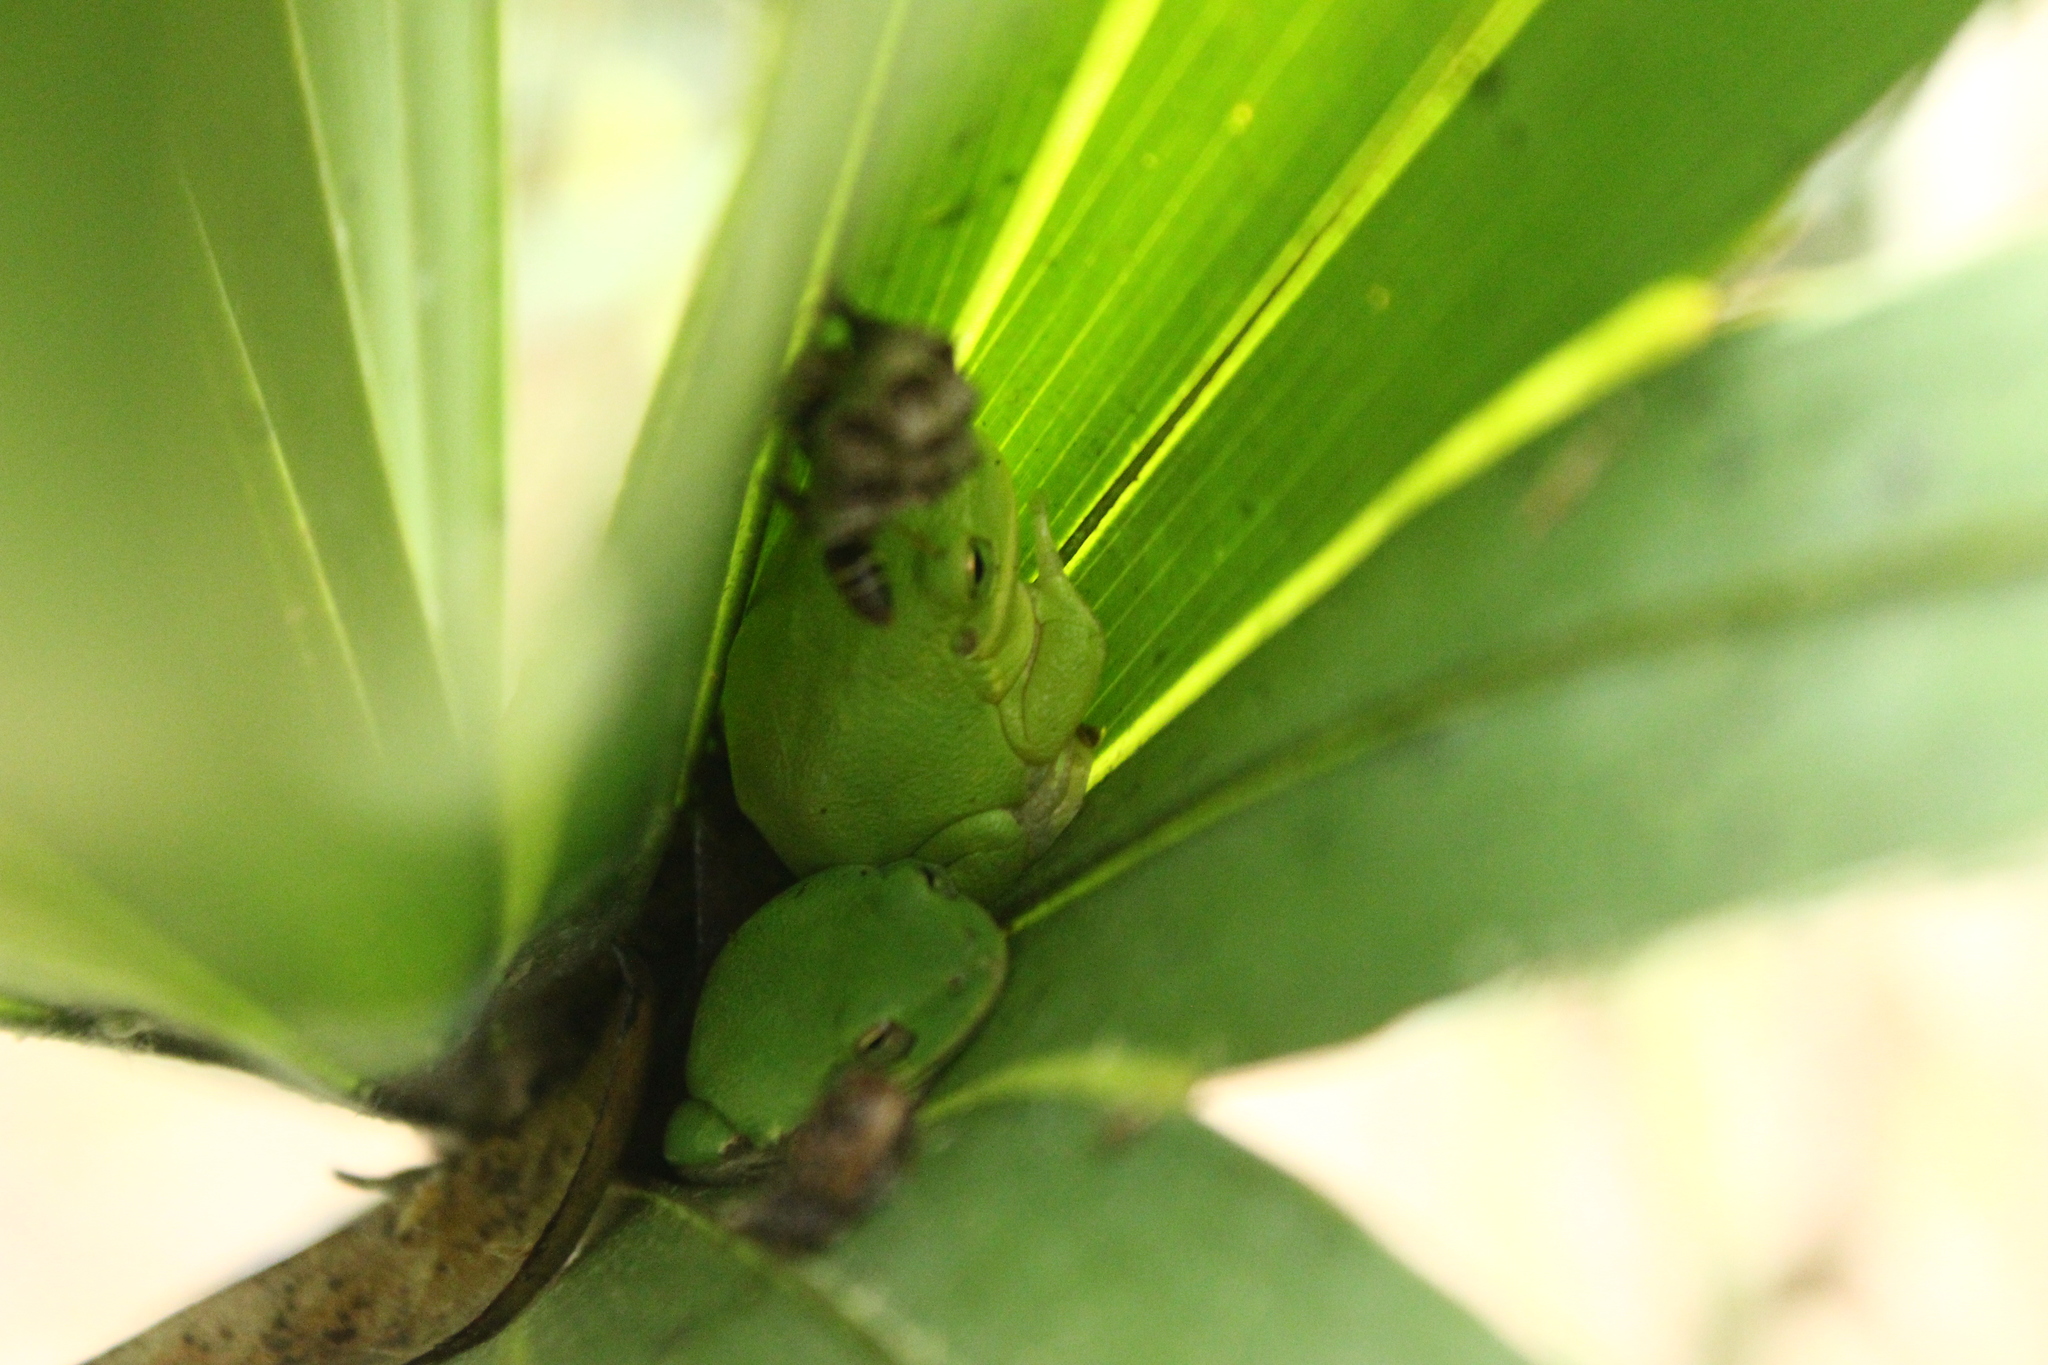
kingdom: Animalia
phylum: Chordata
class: Amphibia
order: Anura
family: Hylidae
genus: Dryophytes
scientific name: Dryophytes squirellus
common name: Squirrel treefrog
